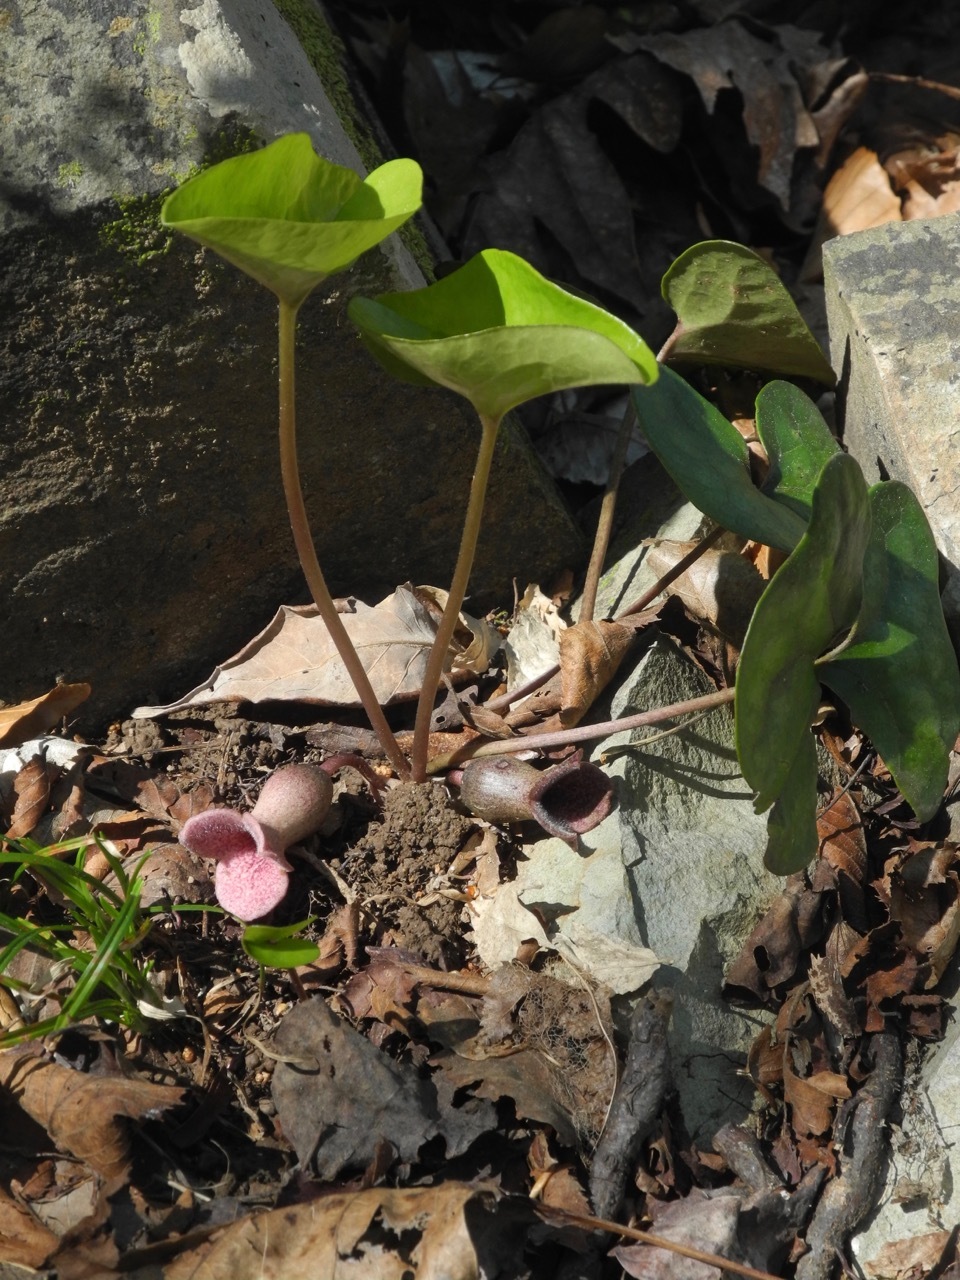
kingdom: Plantae
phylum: Tracheophyta
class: Magnoliopsida
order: Piperales
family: Aristolochiaceae
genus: Hexastylis
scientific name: Hexastylis arifolia
